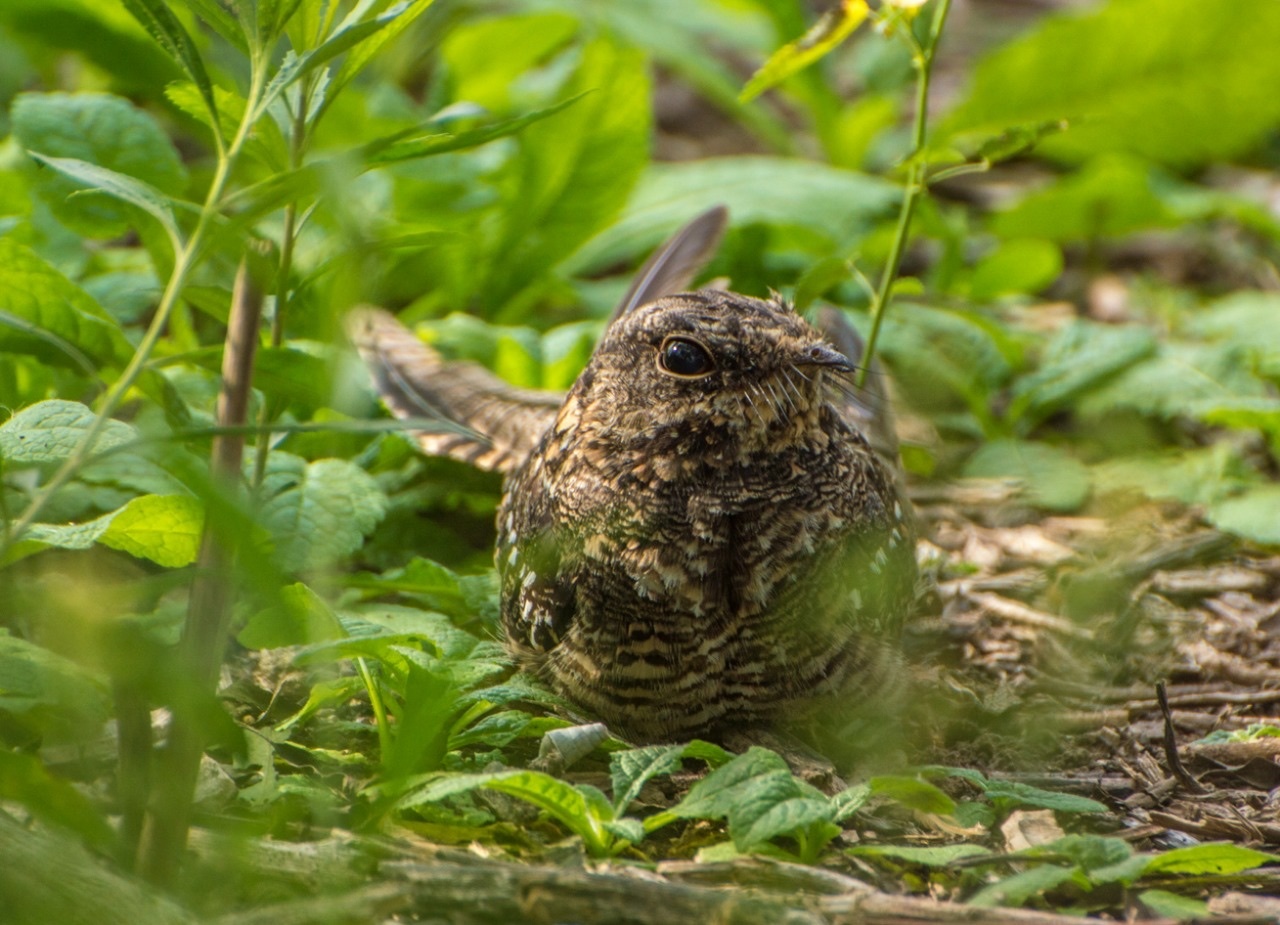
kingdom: Animalia
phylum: Chordata
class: Aves
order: Caprimulgiformes
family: Caprimulgidae
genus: Hydropsalis
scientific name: Hydropsalis torquata
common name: Scissor-tailed nightjar
